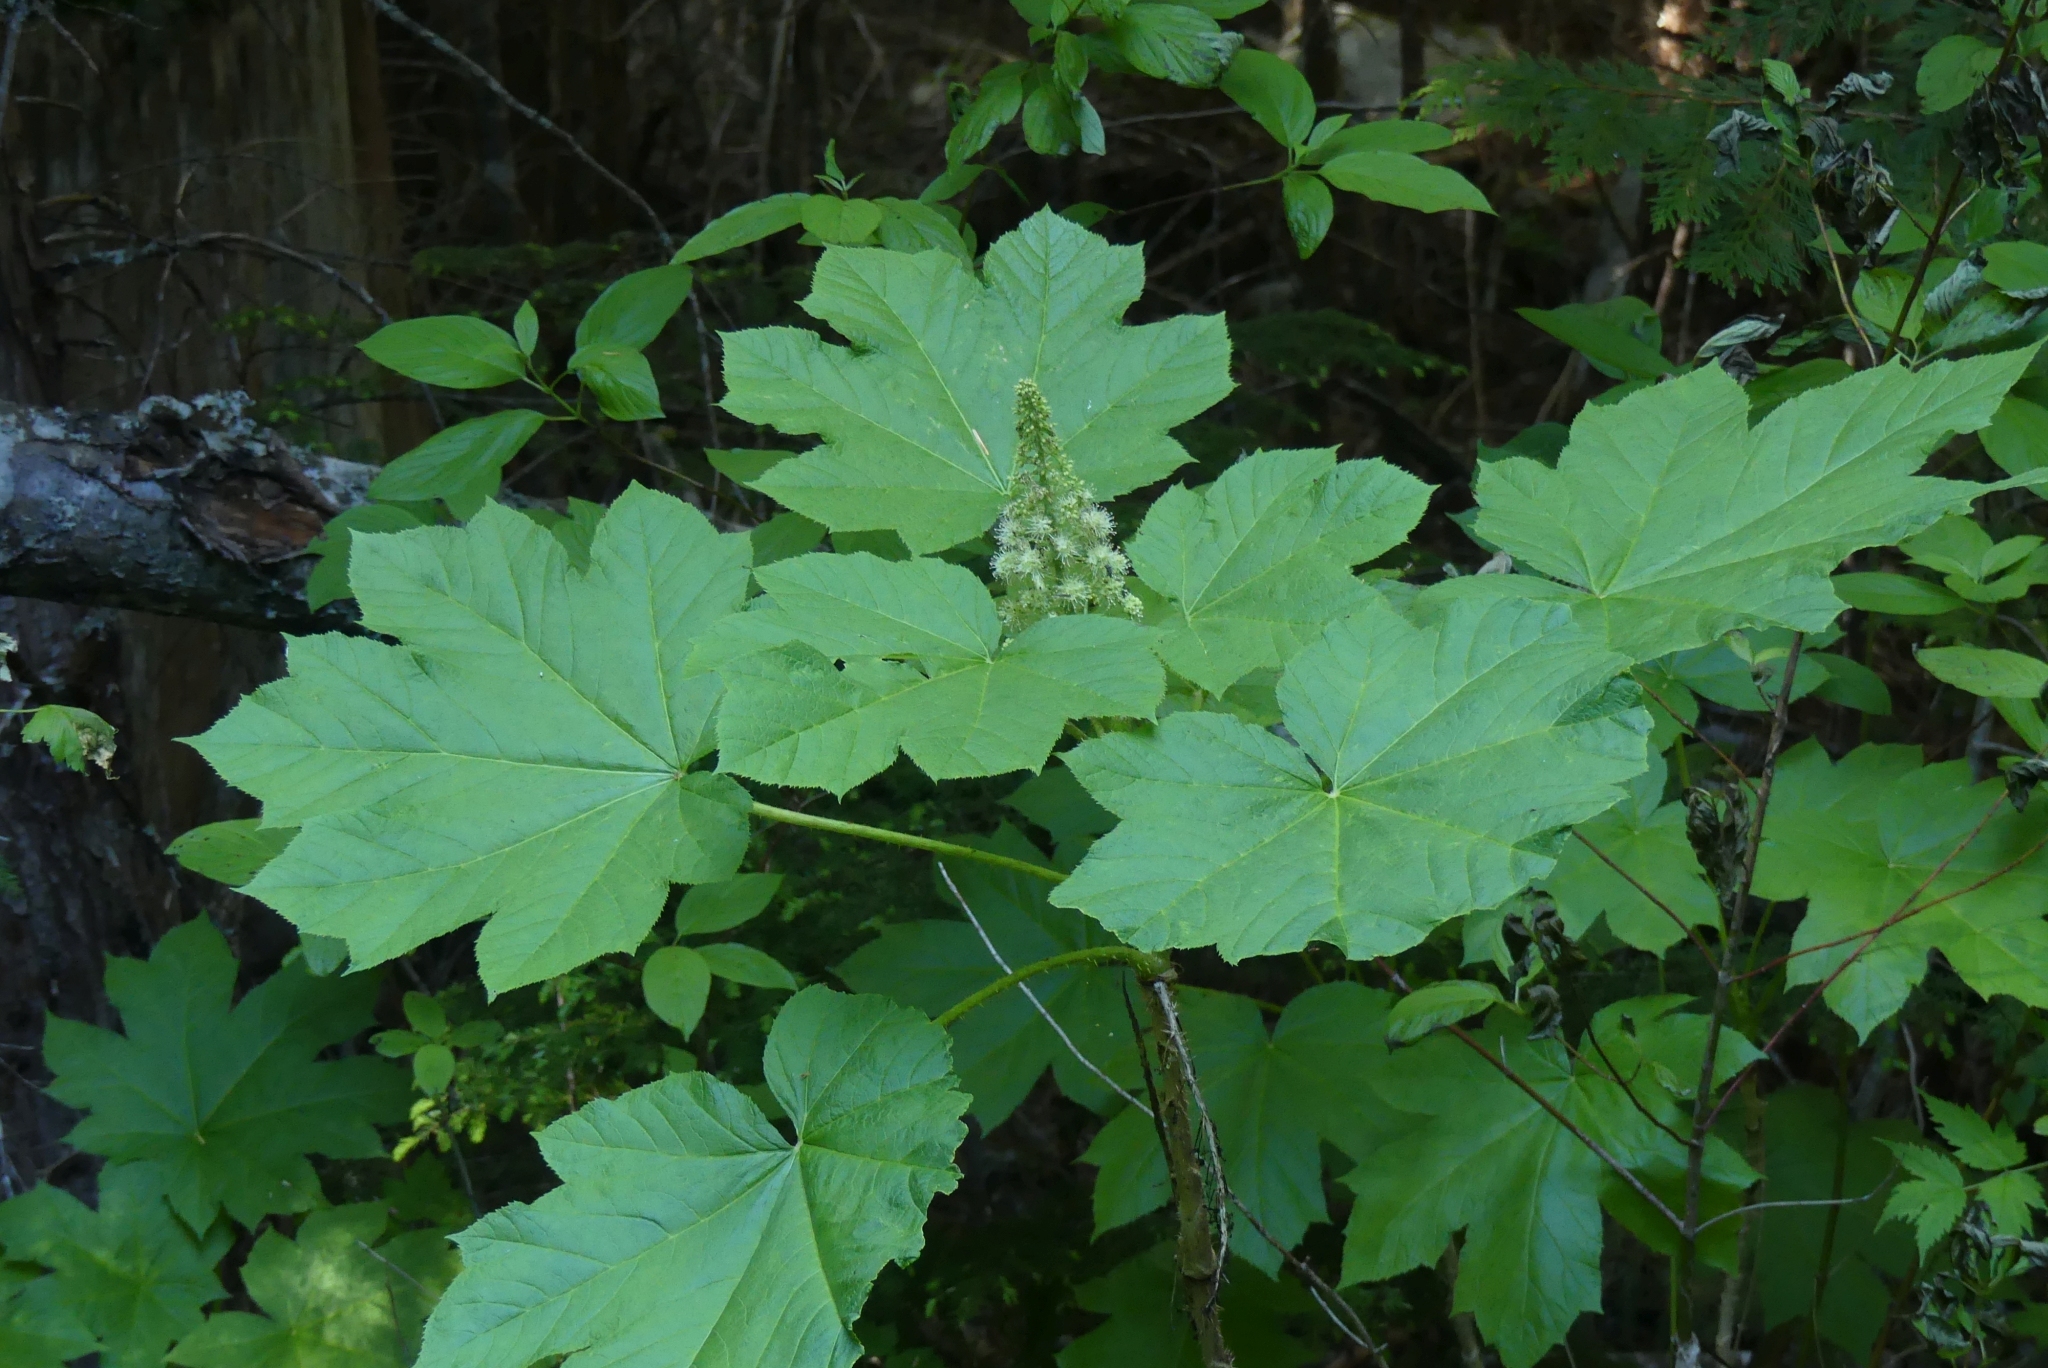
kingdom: Plantae
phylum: Tracheophyta
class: Magnoliopsida
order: Apiales
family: Araliaceae
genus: Oplopanax
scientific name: Oplopanax horridus
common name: Devil's walking-stick
